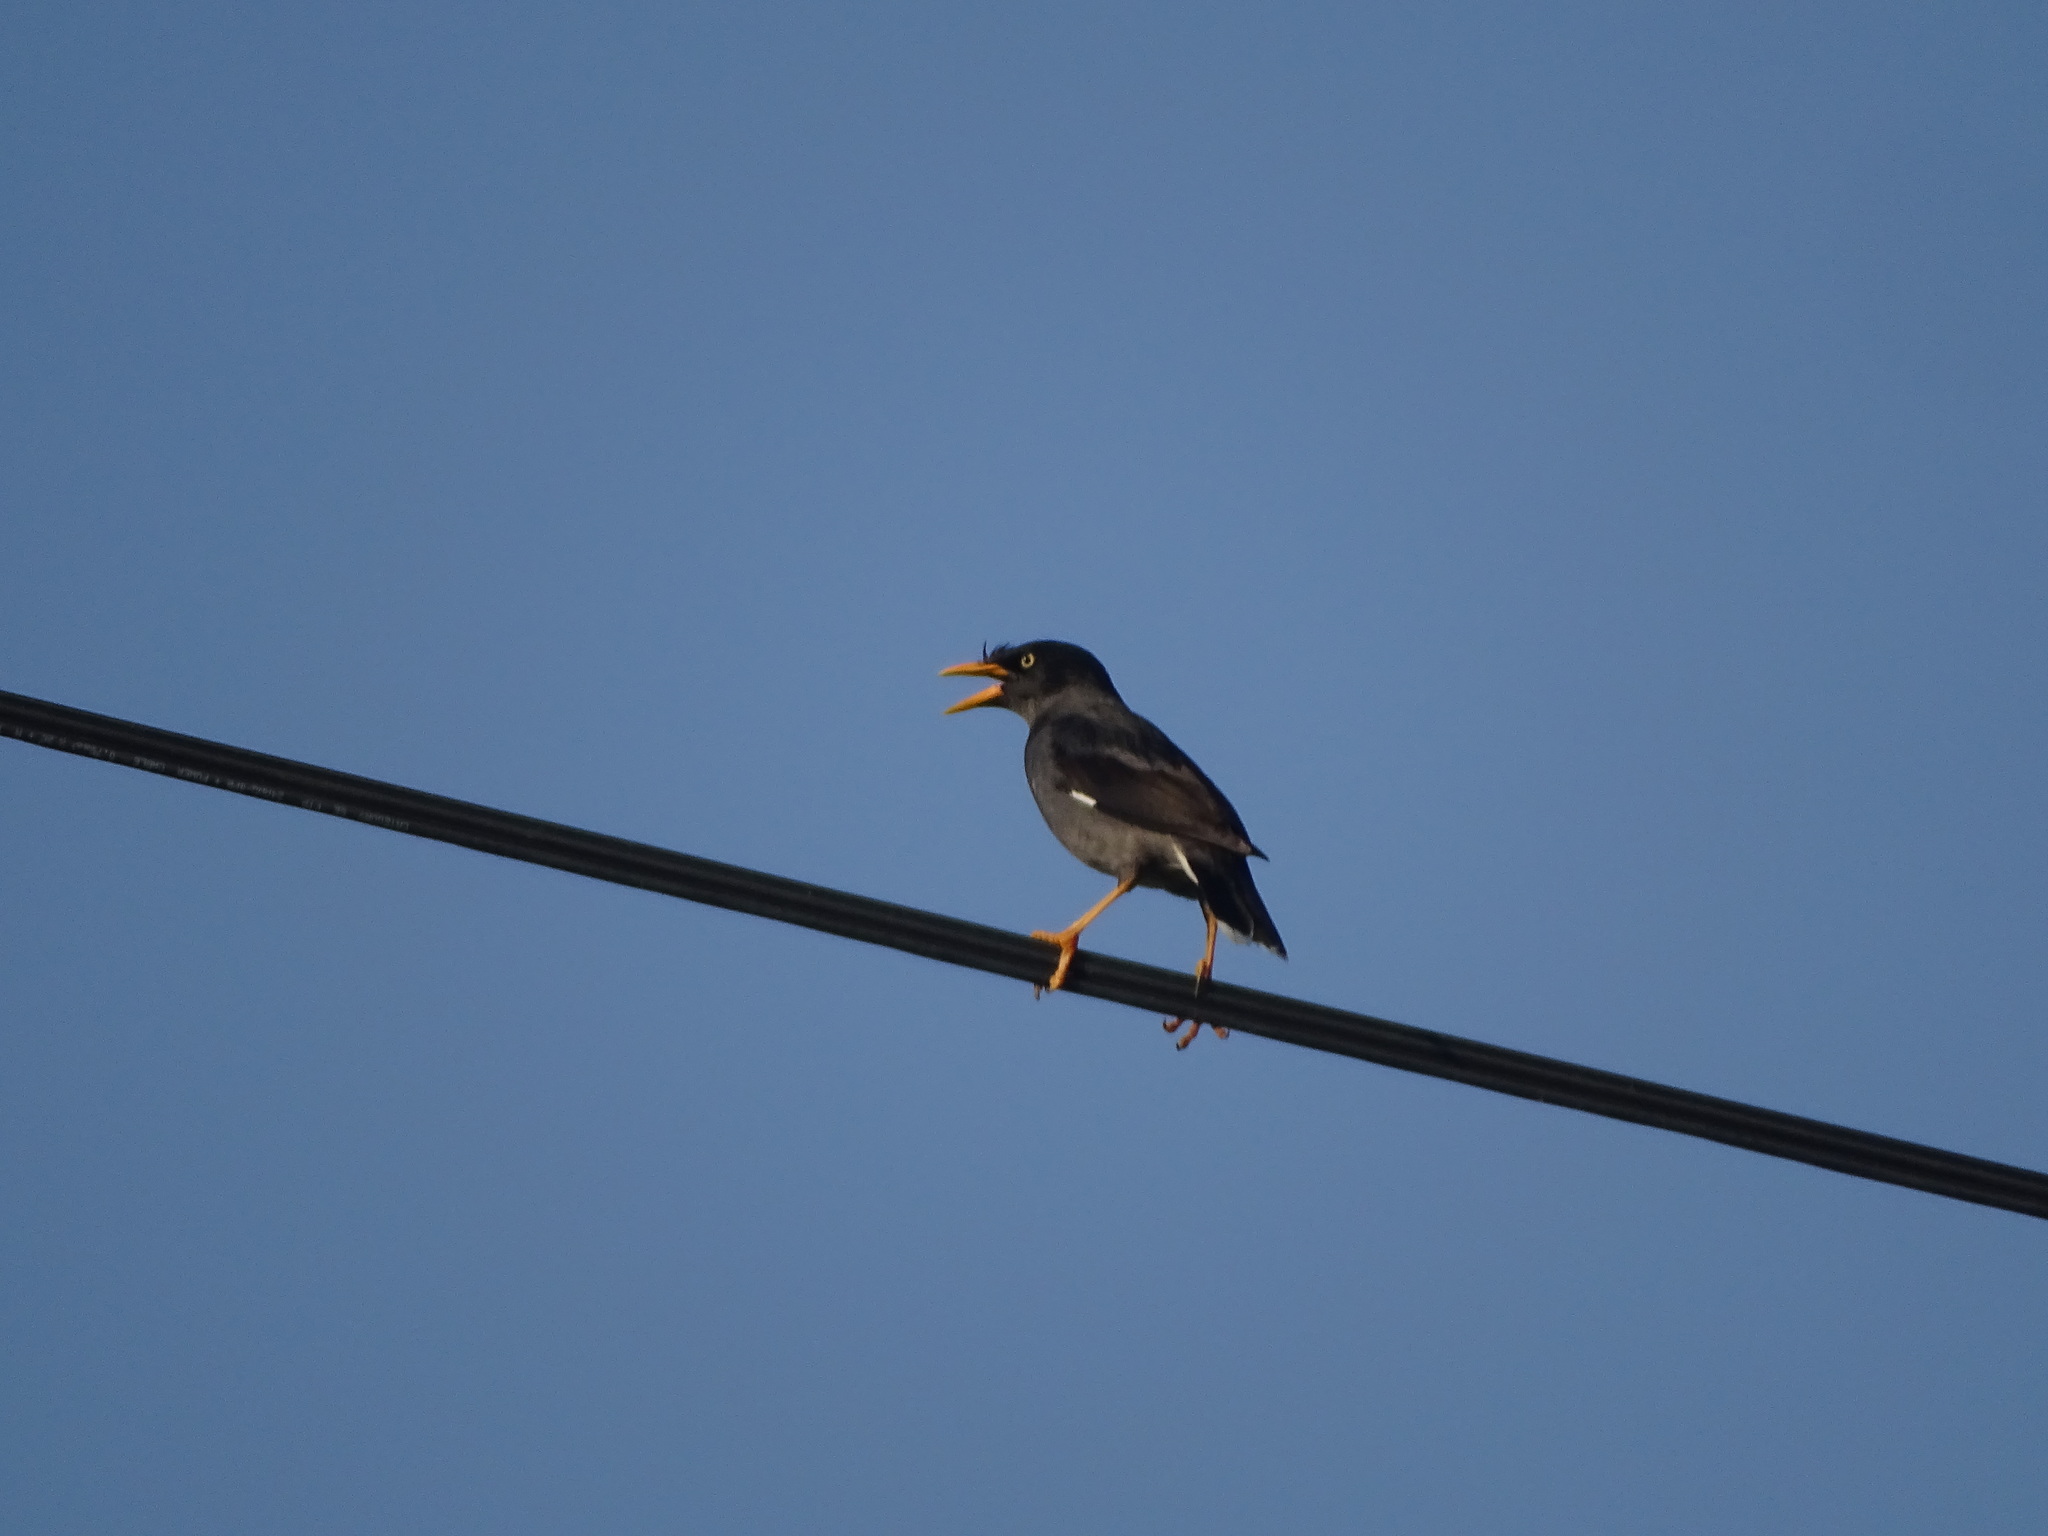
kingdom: Animalia
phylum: Chordata
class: Aves
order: Passeriformes
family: Sturnidae
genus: Acridotheres
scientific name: Acridotheres javanicus
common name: Javan myna
